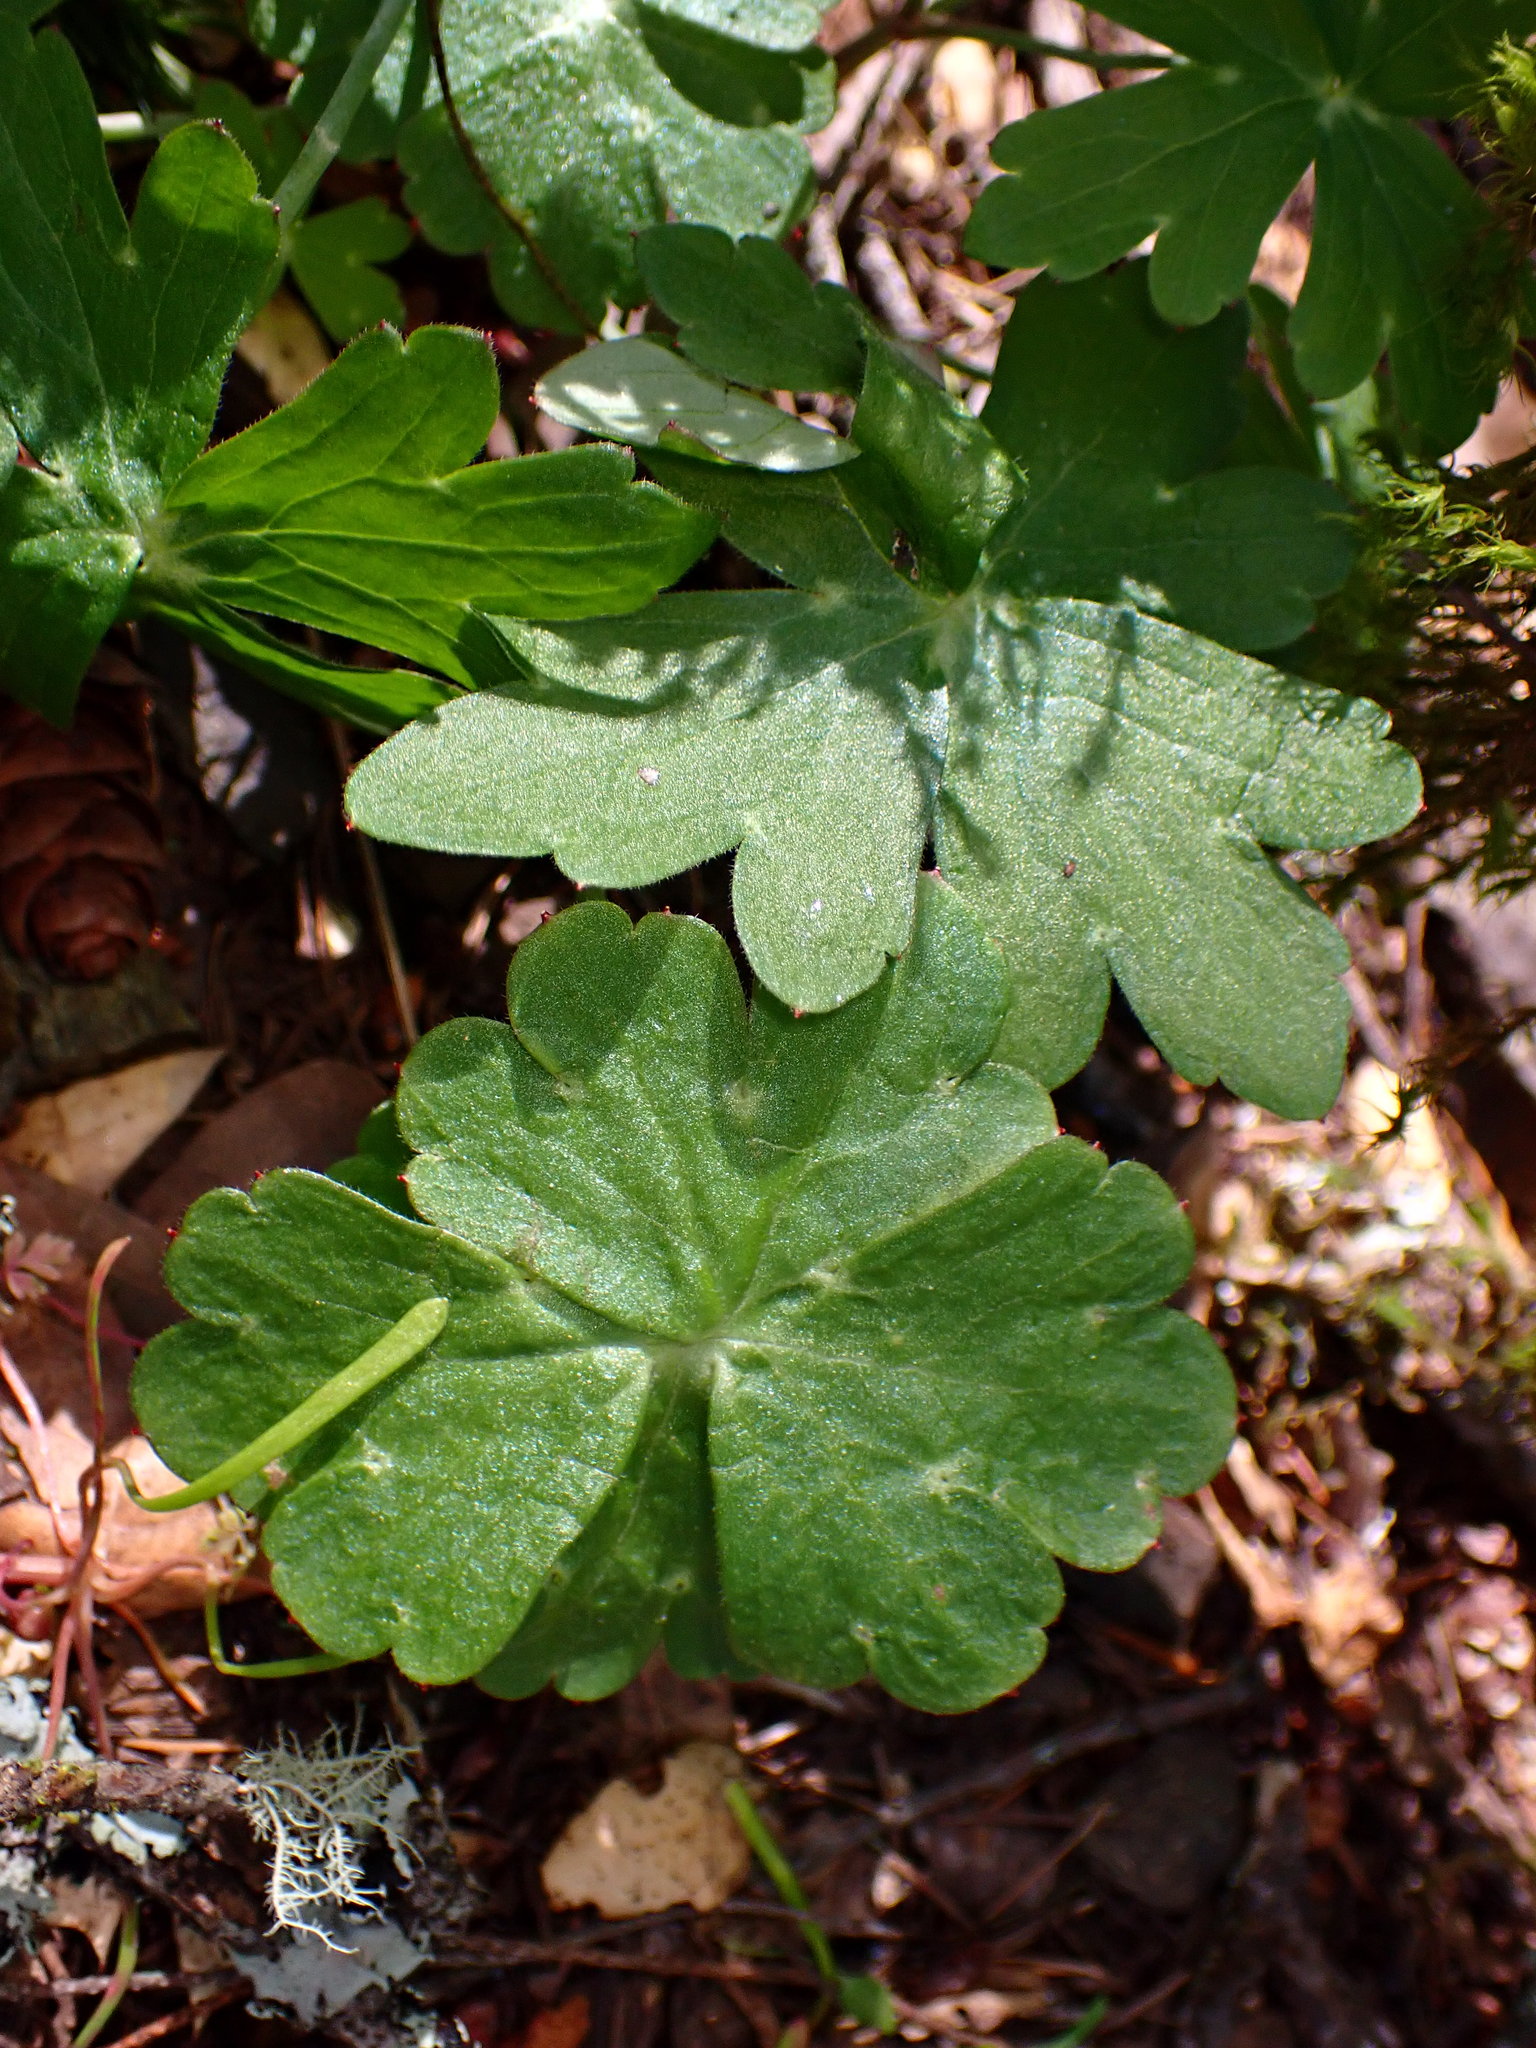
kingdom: Plantae
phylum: Tracheophyta
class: Magnoliopsida
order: Ranunculales
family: Ranunculaceae
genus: Delphinium
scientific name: Delphinium nudicaule
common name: Red larkspur
